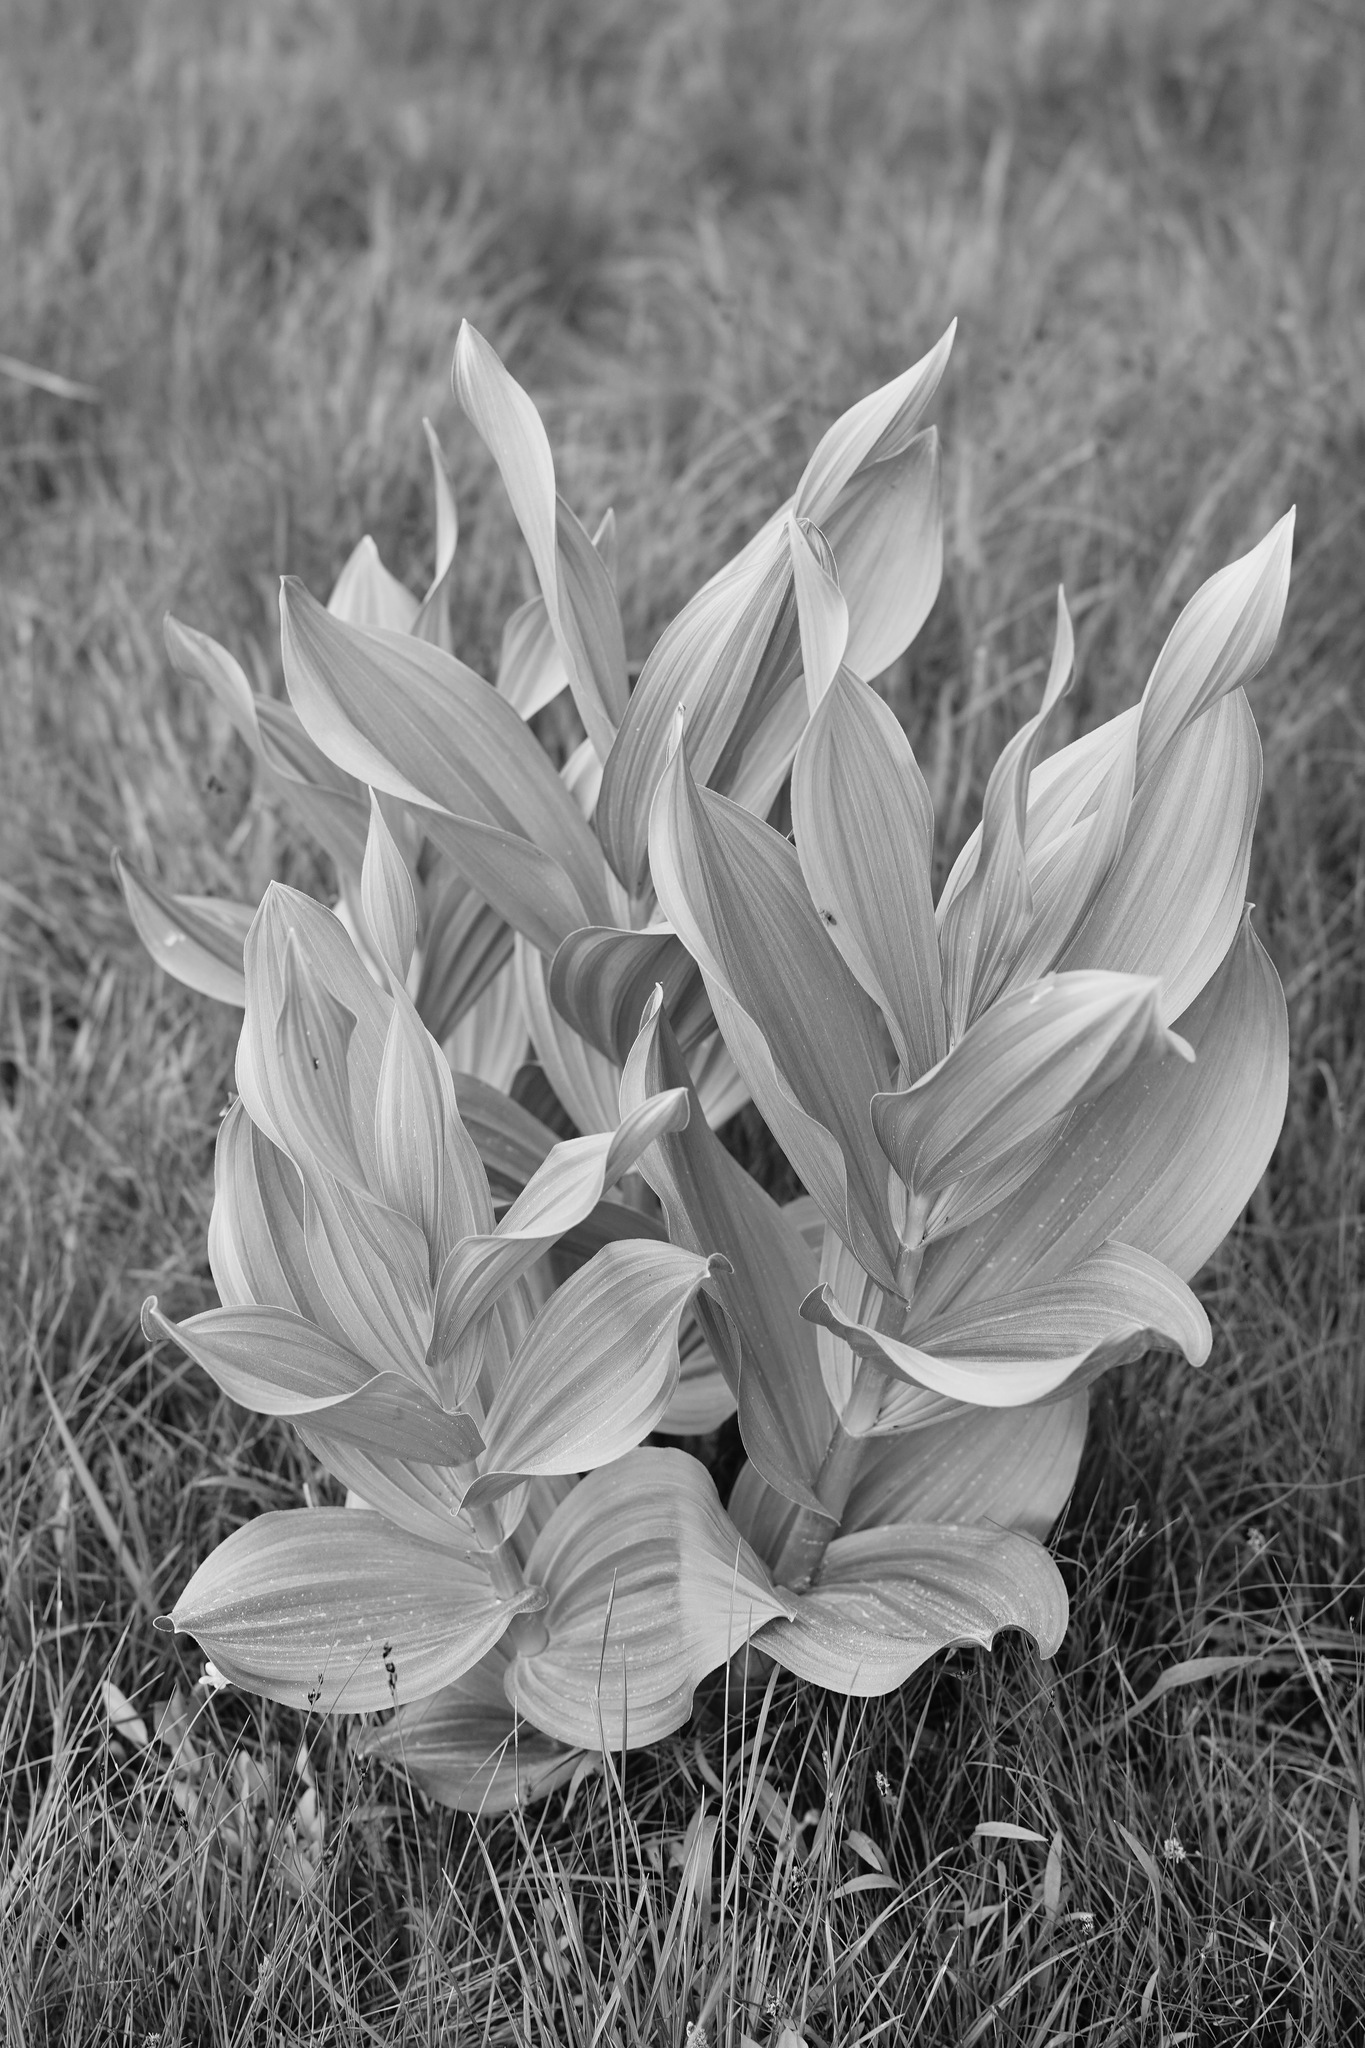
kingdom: Plantae
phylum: Tracheophyta
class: Liliopsida
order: Liliales
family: Melanthiaceae
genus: Veratrum
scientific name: Veratrum californicum
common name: California veratrum
